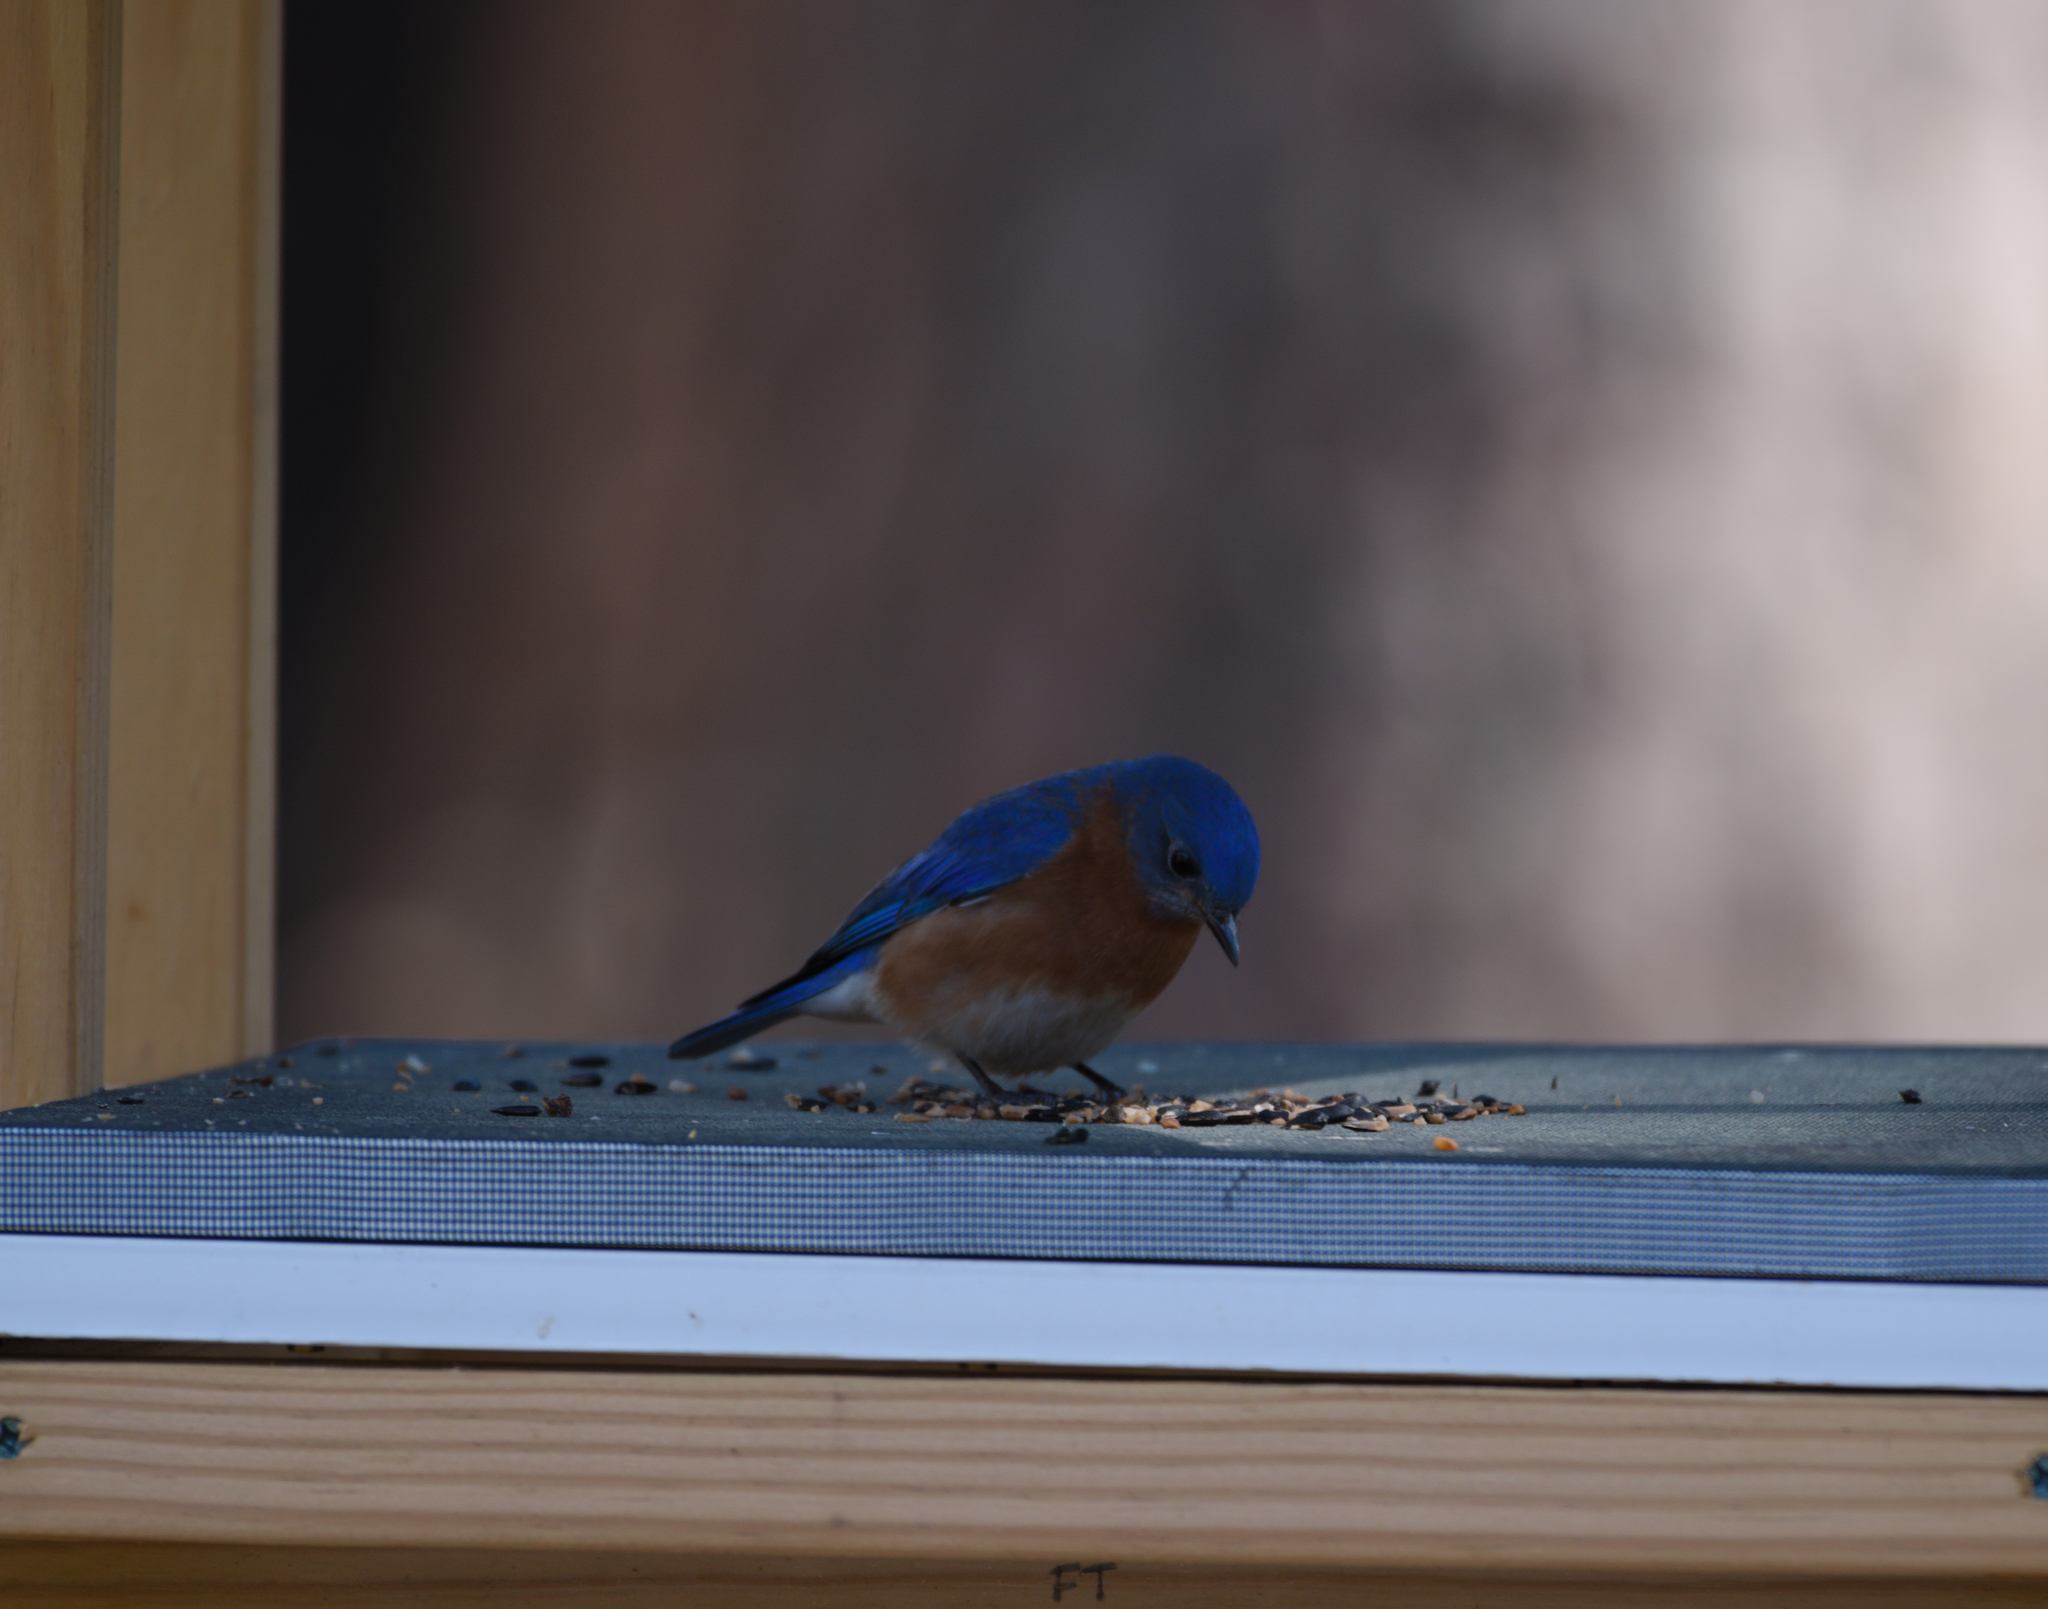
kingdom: Animalia
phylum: Chordata
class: Aves
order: Passeriformes
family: Turdidae
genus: Sialia
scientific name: Sialia sialis
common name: Eastern bluebird
